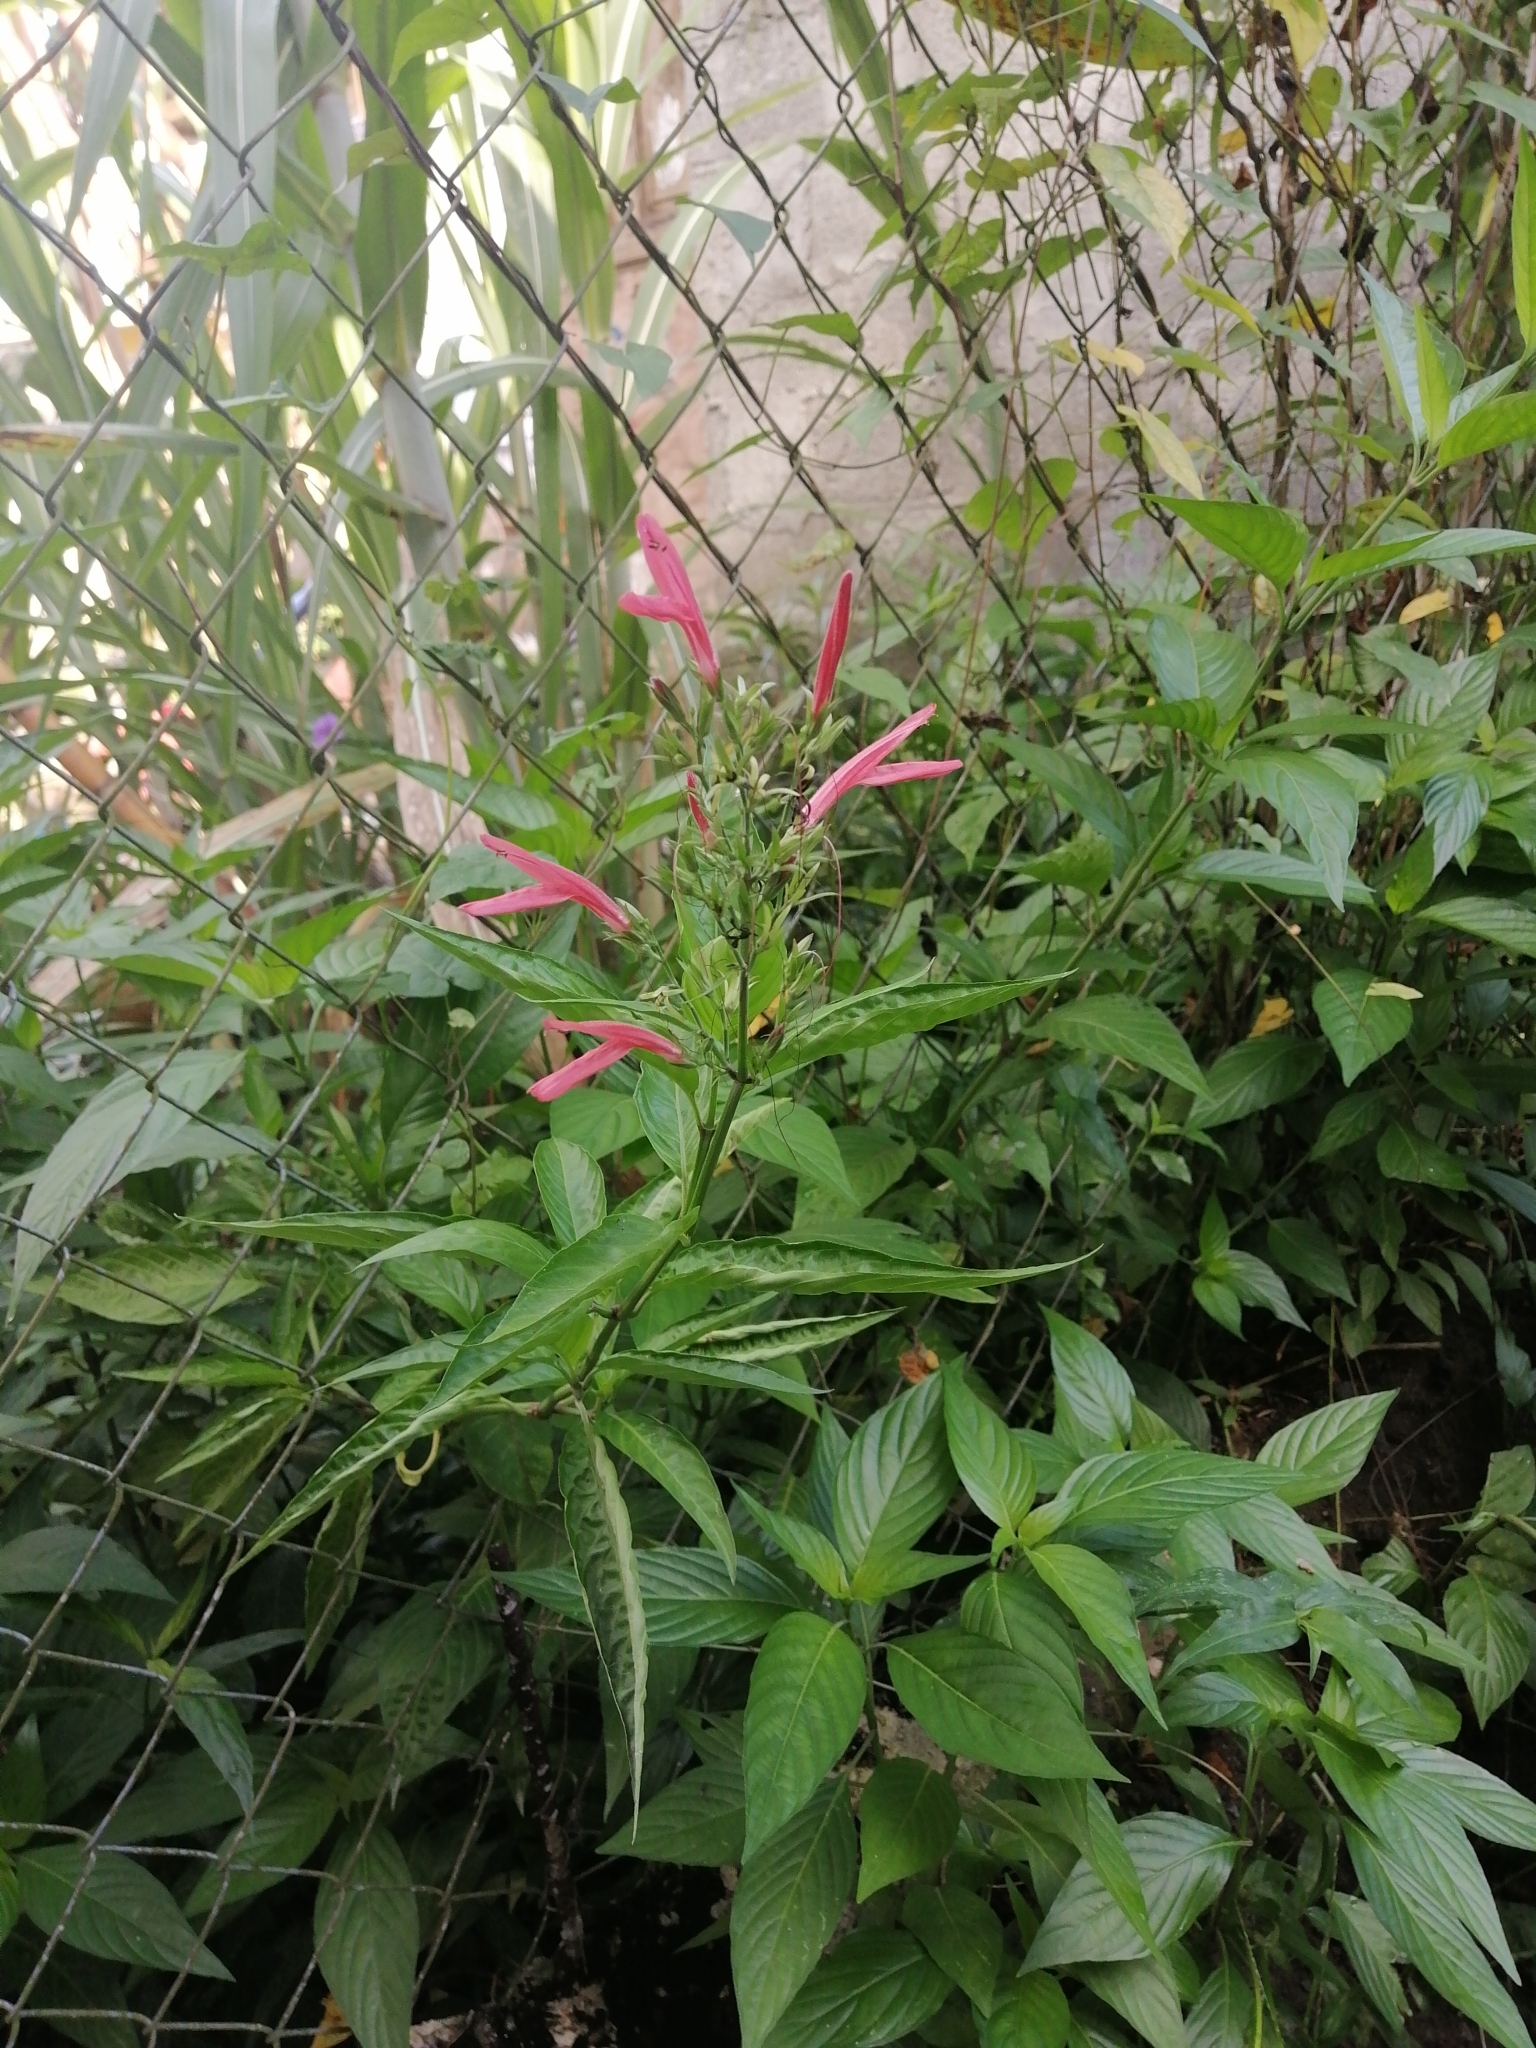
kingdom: Plantae
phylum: Tracheophyta
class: Magnoliopsida
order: Lamiales
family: Acanthaceae
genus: Dianthera
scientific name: Dianthera secunda
